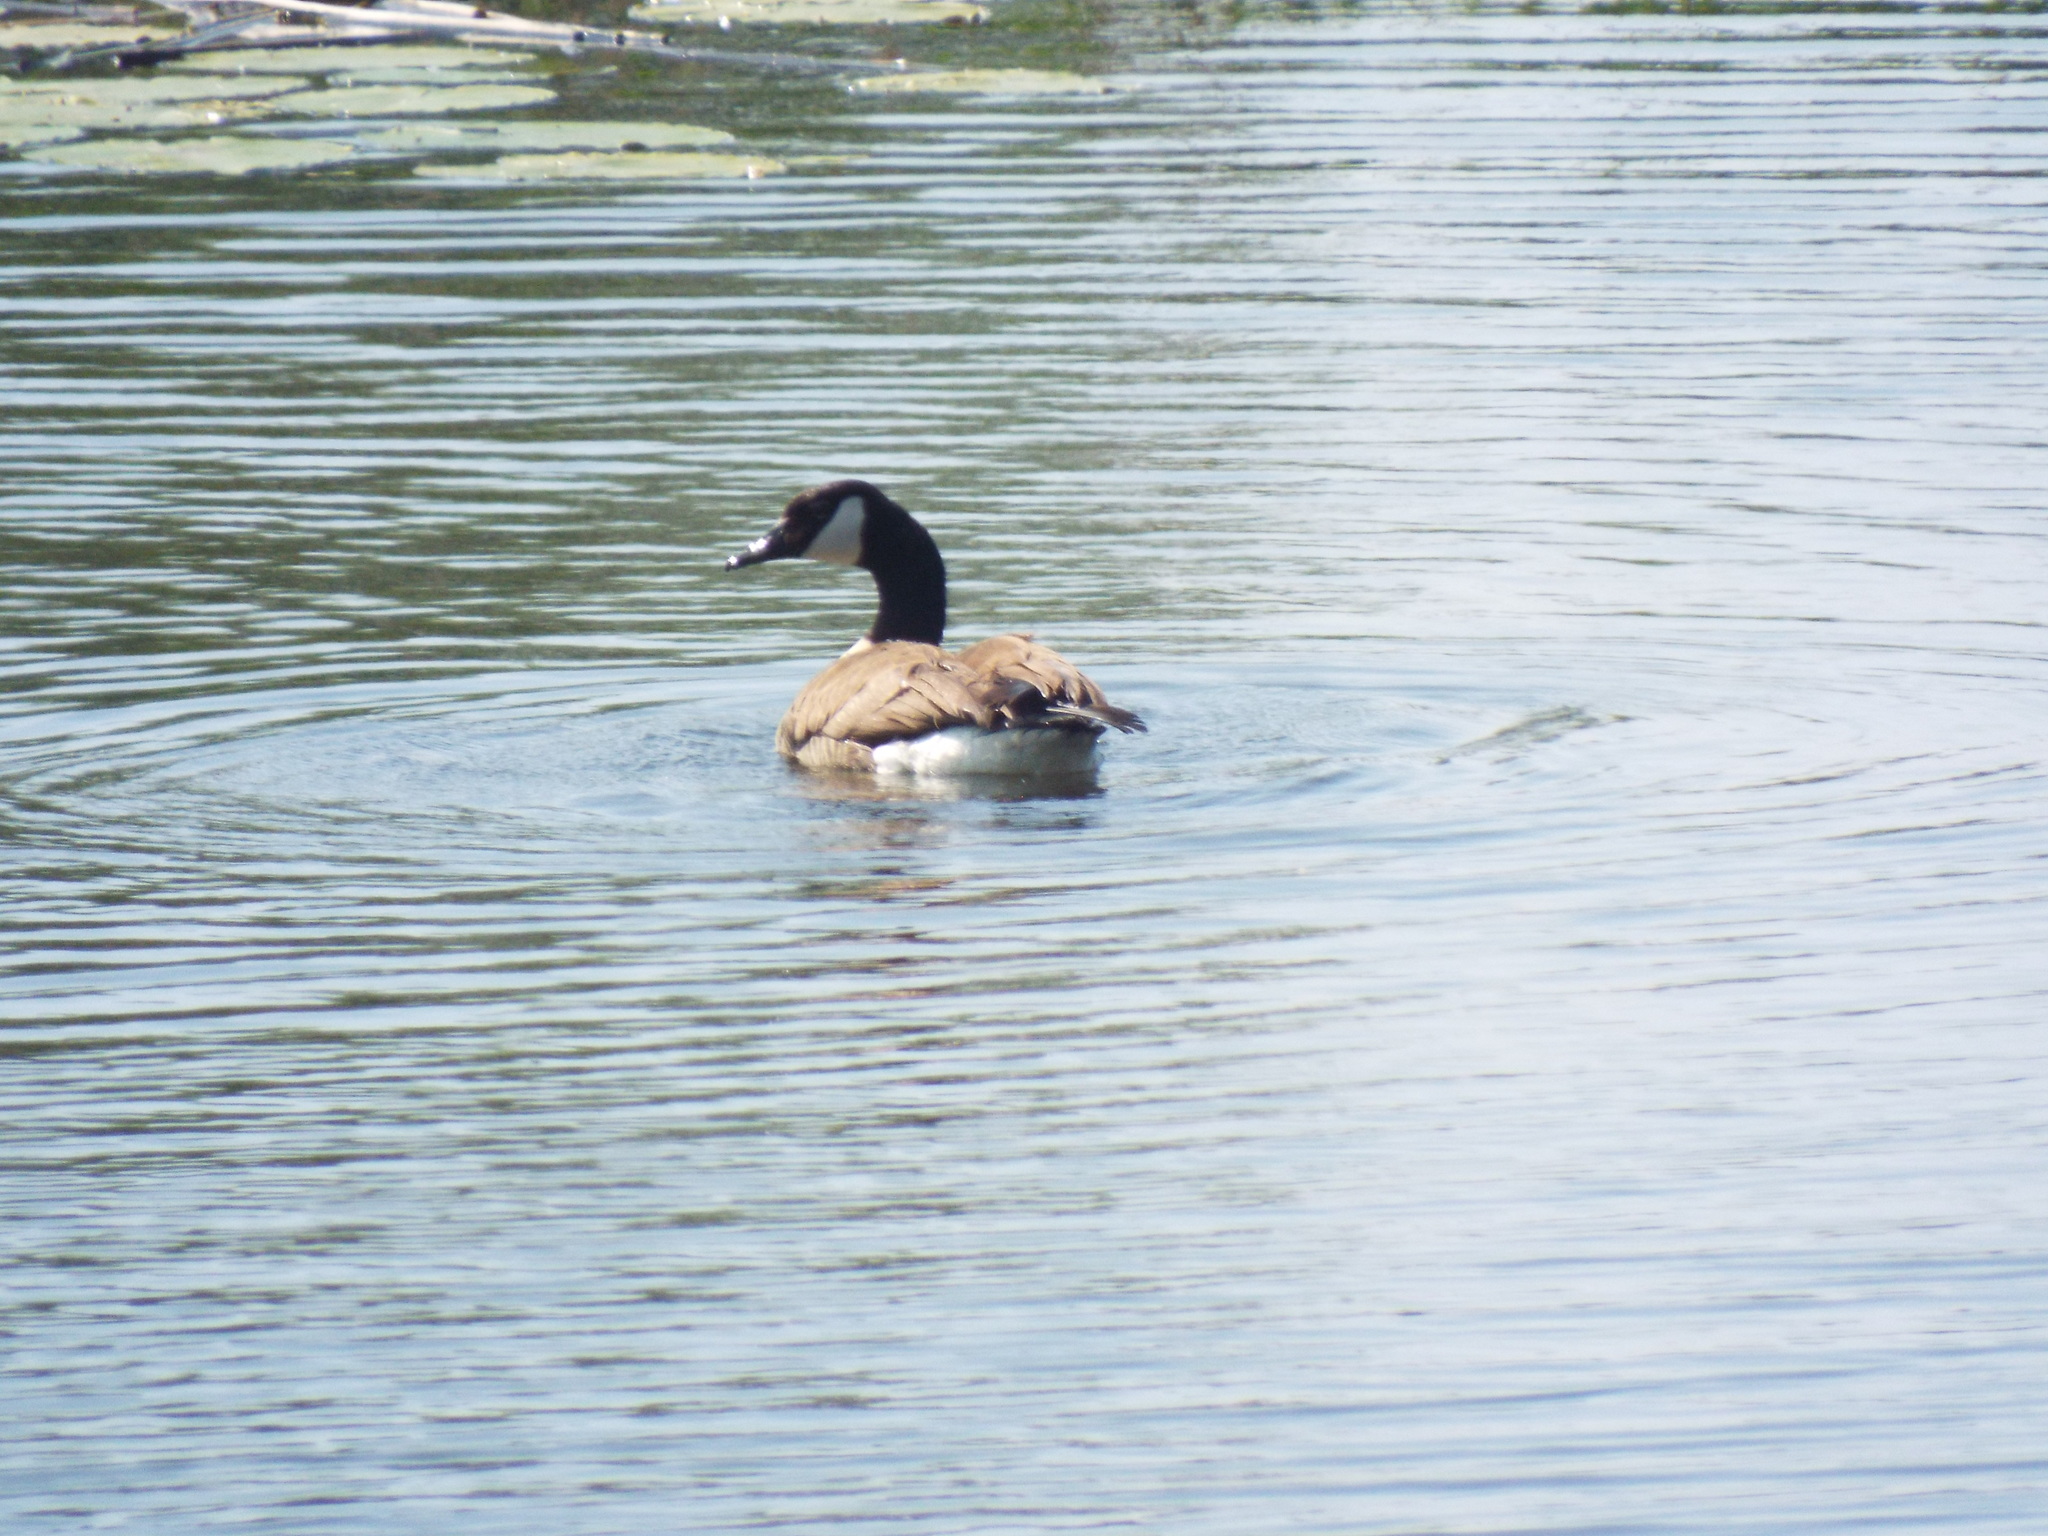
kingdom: Animalia
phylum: Chordata
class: Aves
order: Anseriformes
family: Anatidae
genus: Branta
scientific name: Branta canadensis
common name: Canada goose
